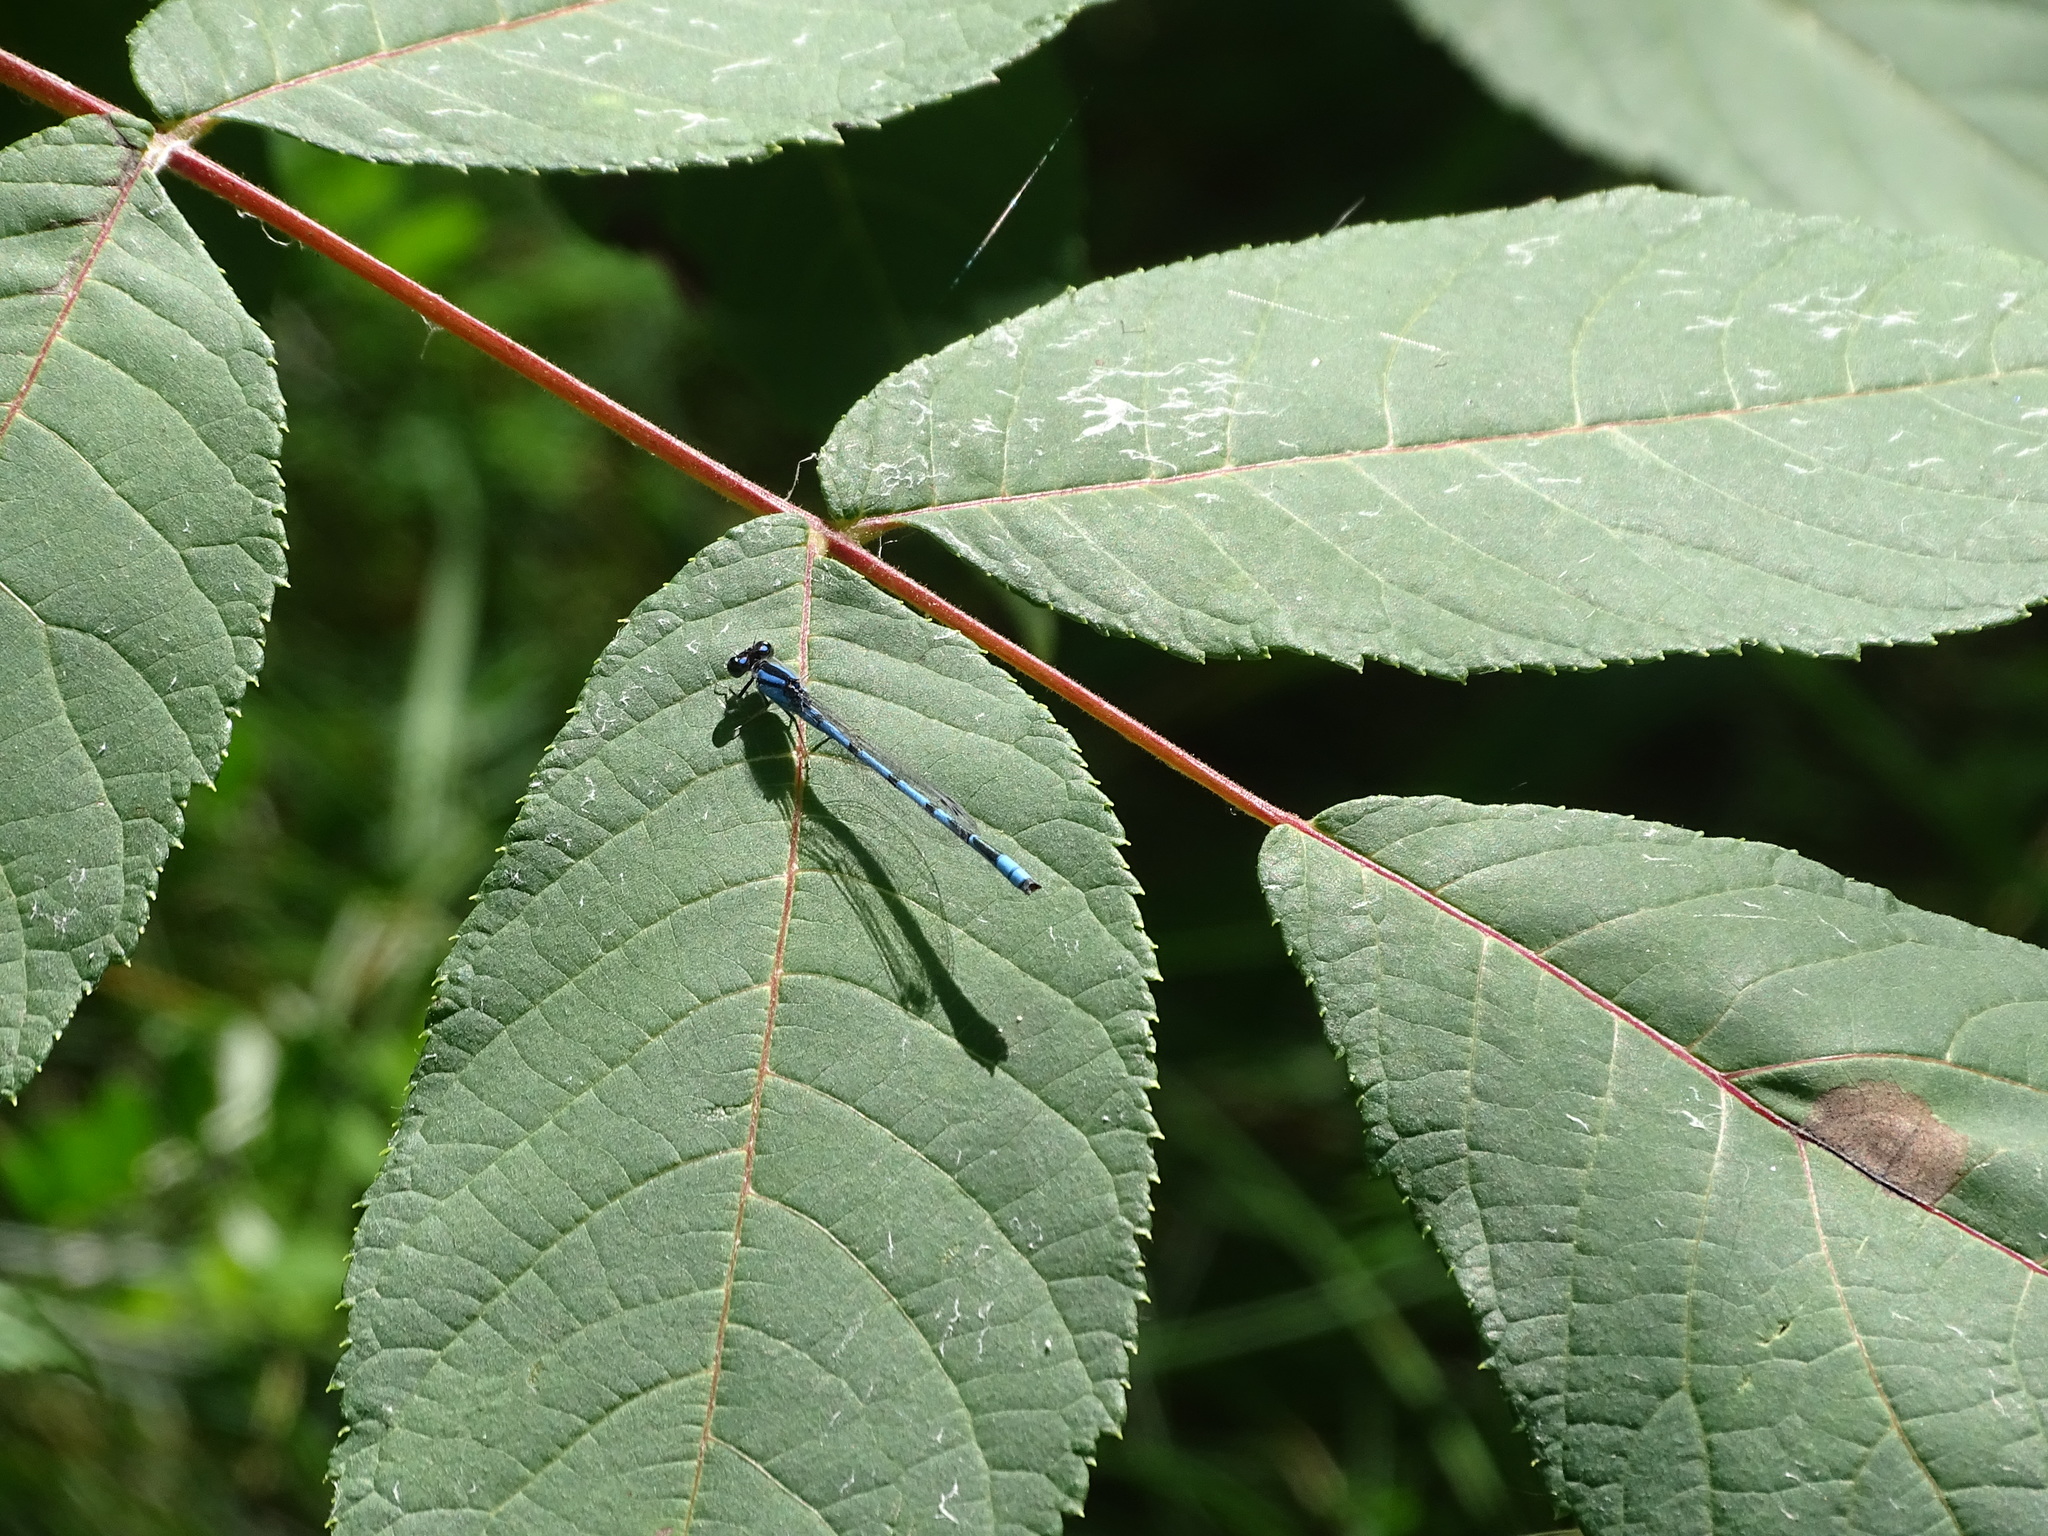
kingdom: Animalia
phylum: Arthropoda
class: Insecta
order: Odonata
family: Coenagrionidae
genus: Enallagma
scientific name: Enallagma civile
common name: Damselfly
